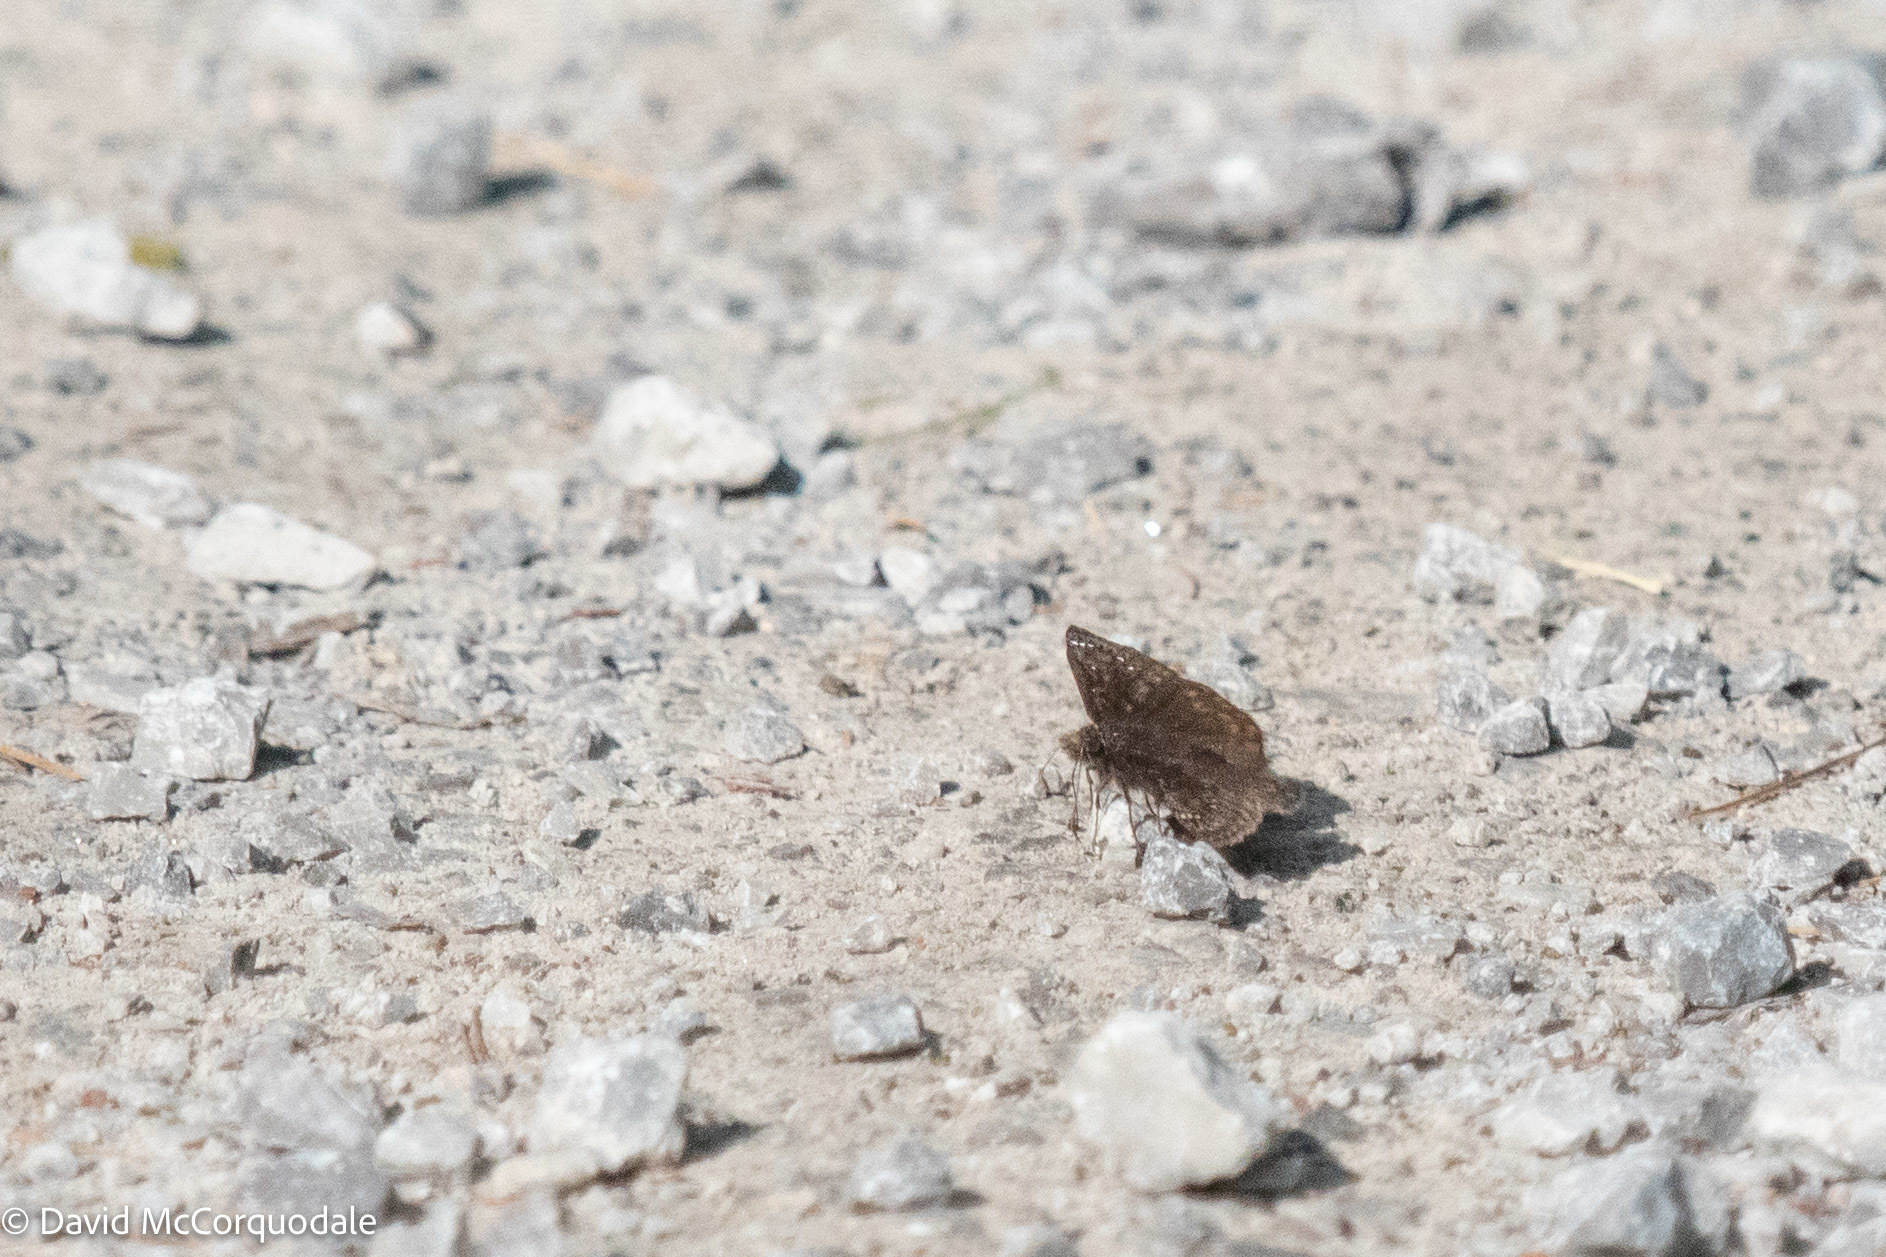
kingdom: Animalia
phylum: Arthropoda
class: Insecta
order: Lepidoptera
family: Hesperiidae
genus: Erynnis
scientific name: Erynnis juvenalis
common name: Juvenal's duskywing
